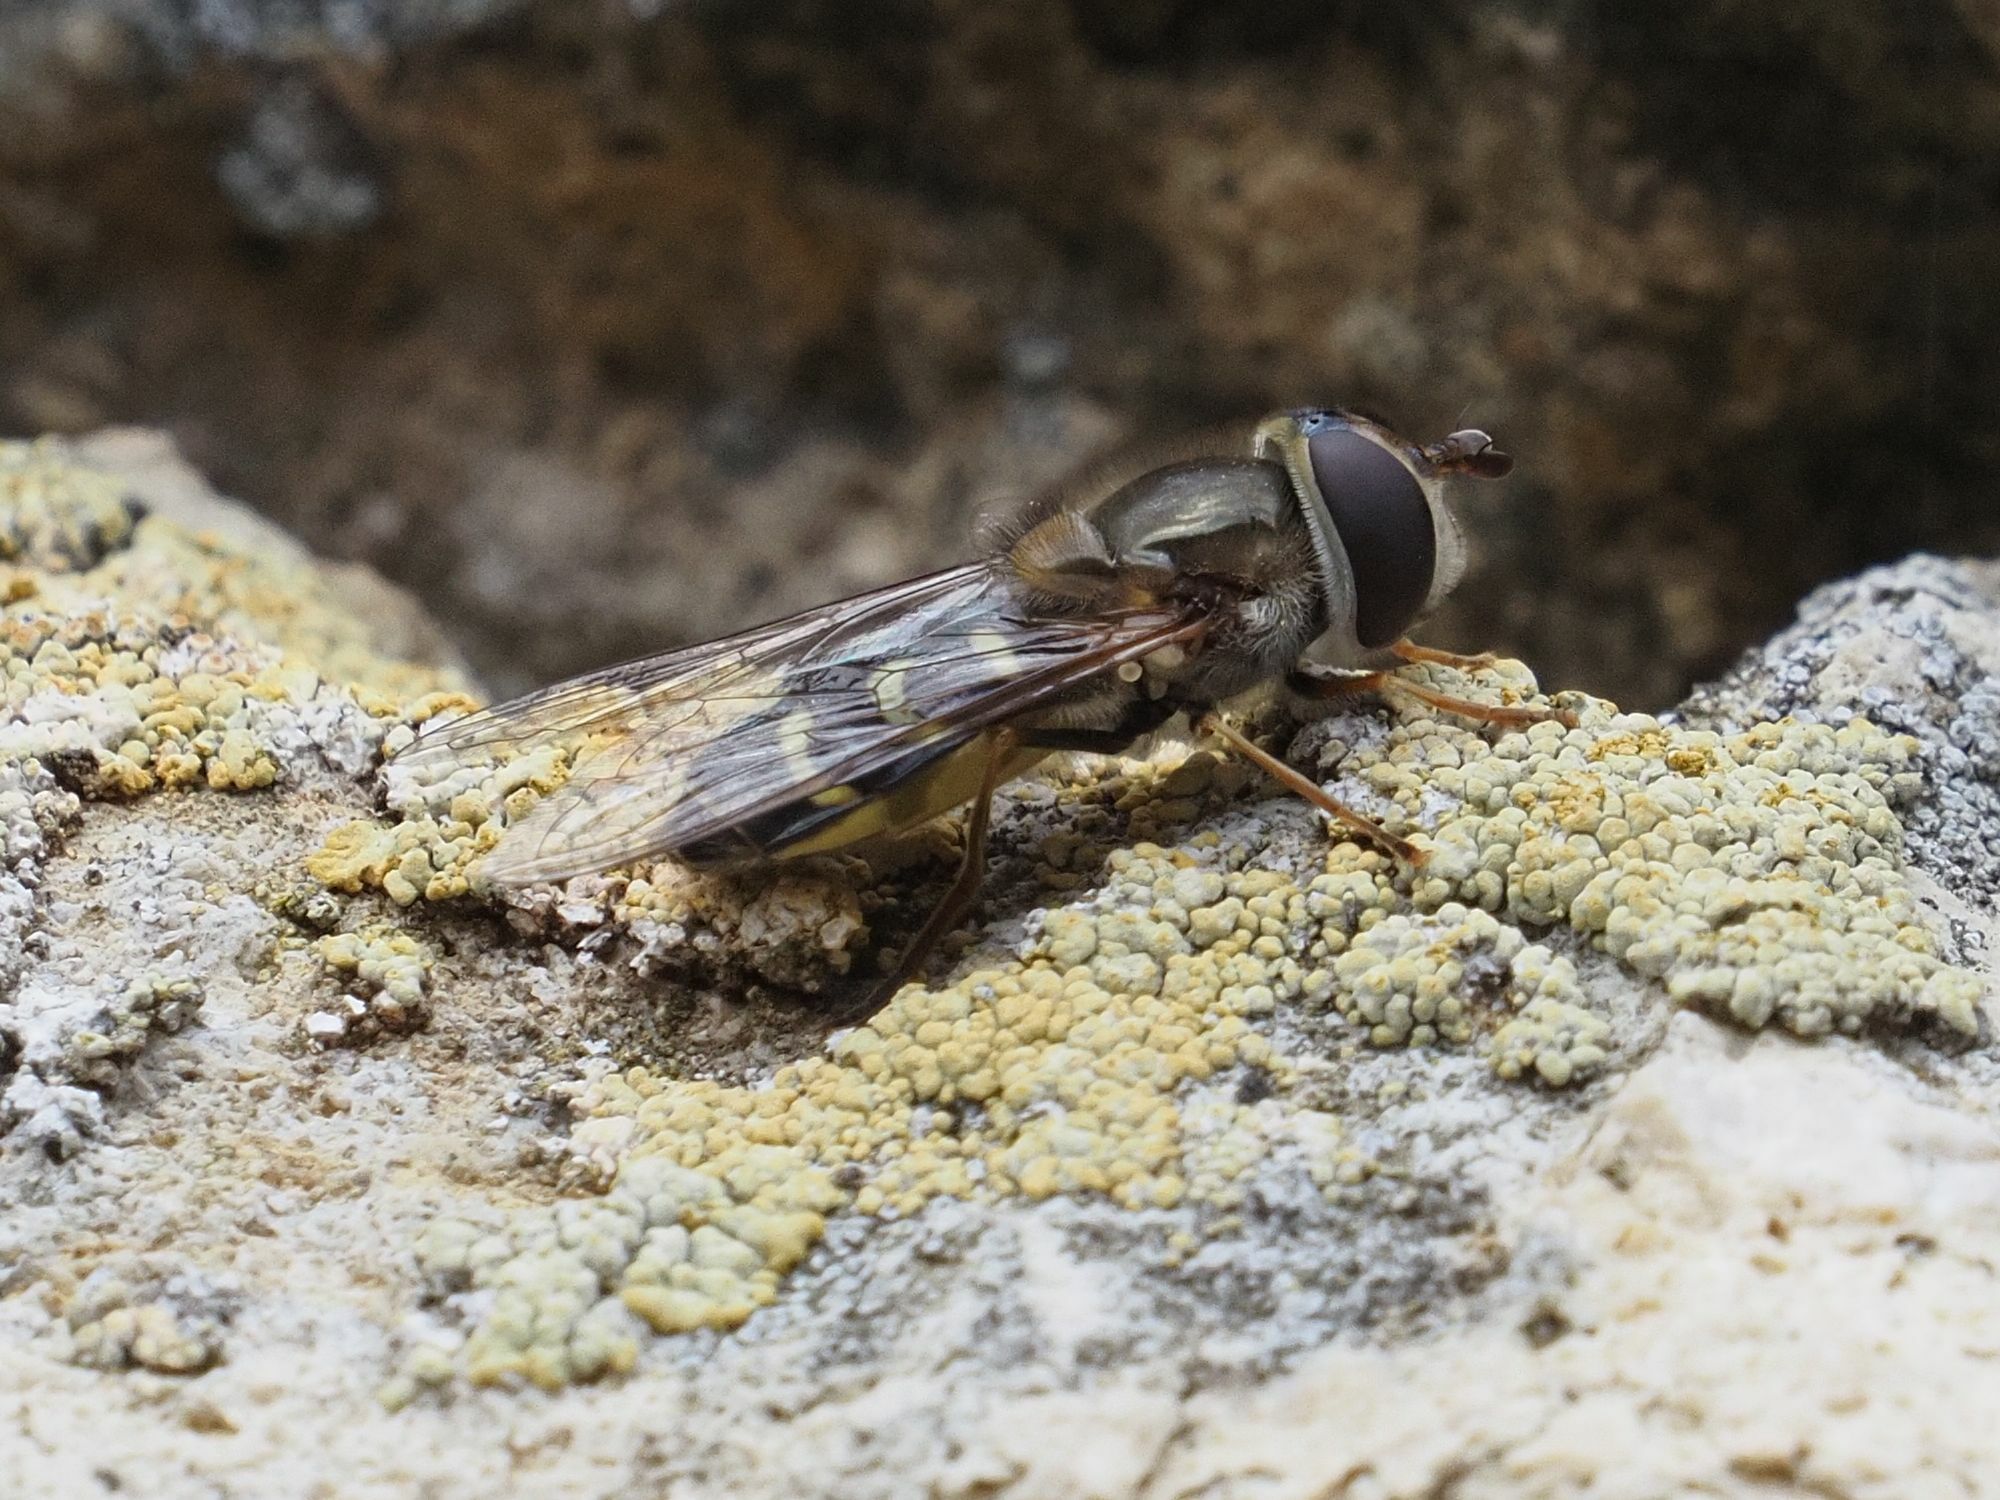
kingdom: Animalia
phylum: Arthropoda
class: Insecta
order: Diptera
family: Syrphidae
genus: Scaeva
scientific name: Scaeva selenitica
